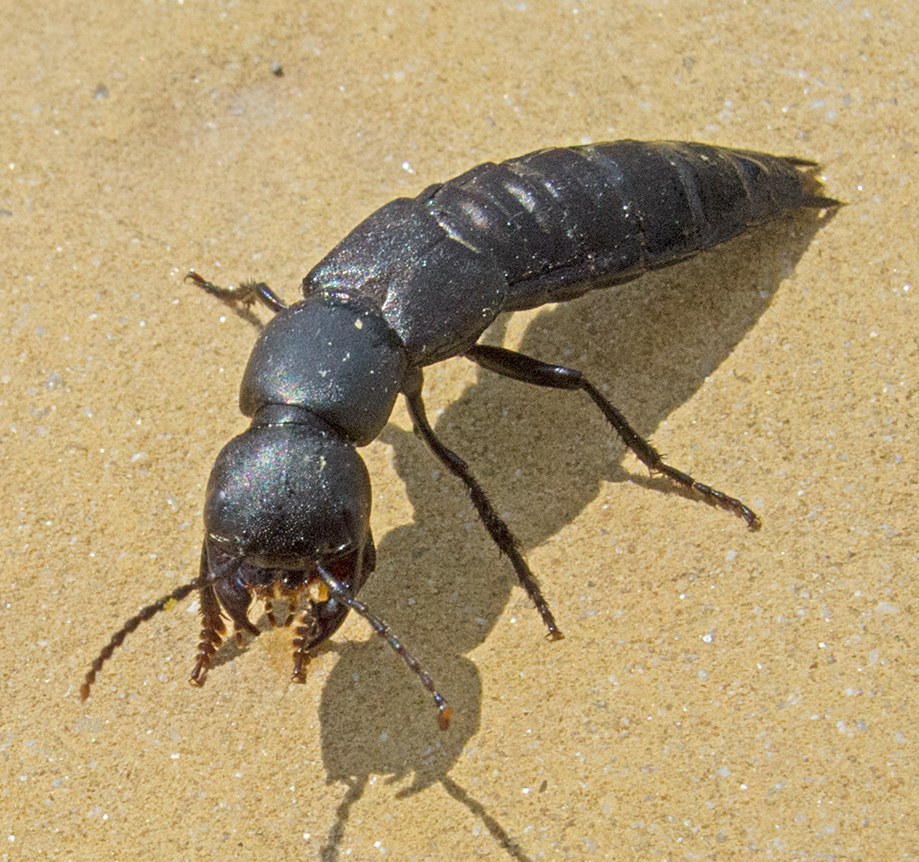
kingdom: Animalia
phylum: Arthropoda
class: Insecta
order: Coleoptera
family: Staphylinidae
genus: Ocypus
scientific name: Ocypus ophthalmicus
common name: Blue rove-beetle
